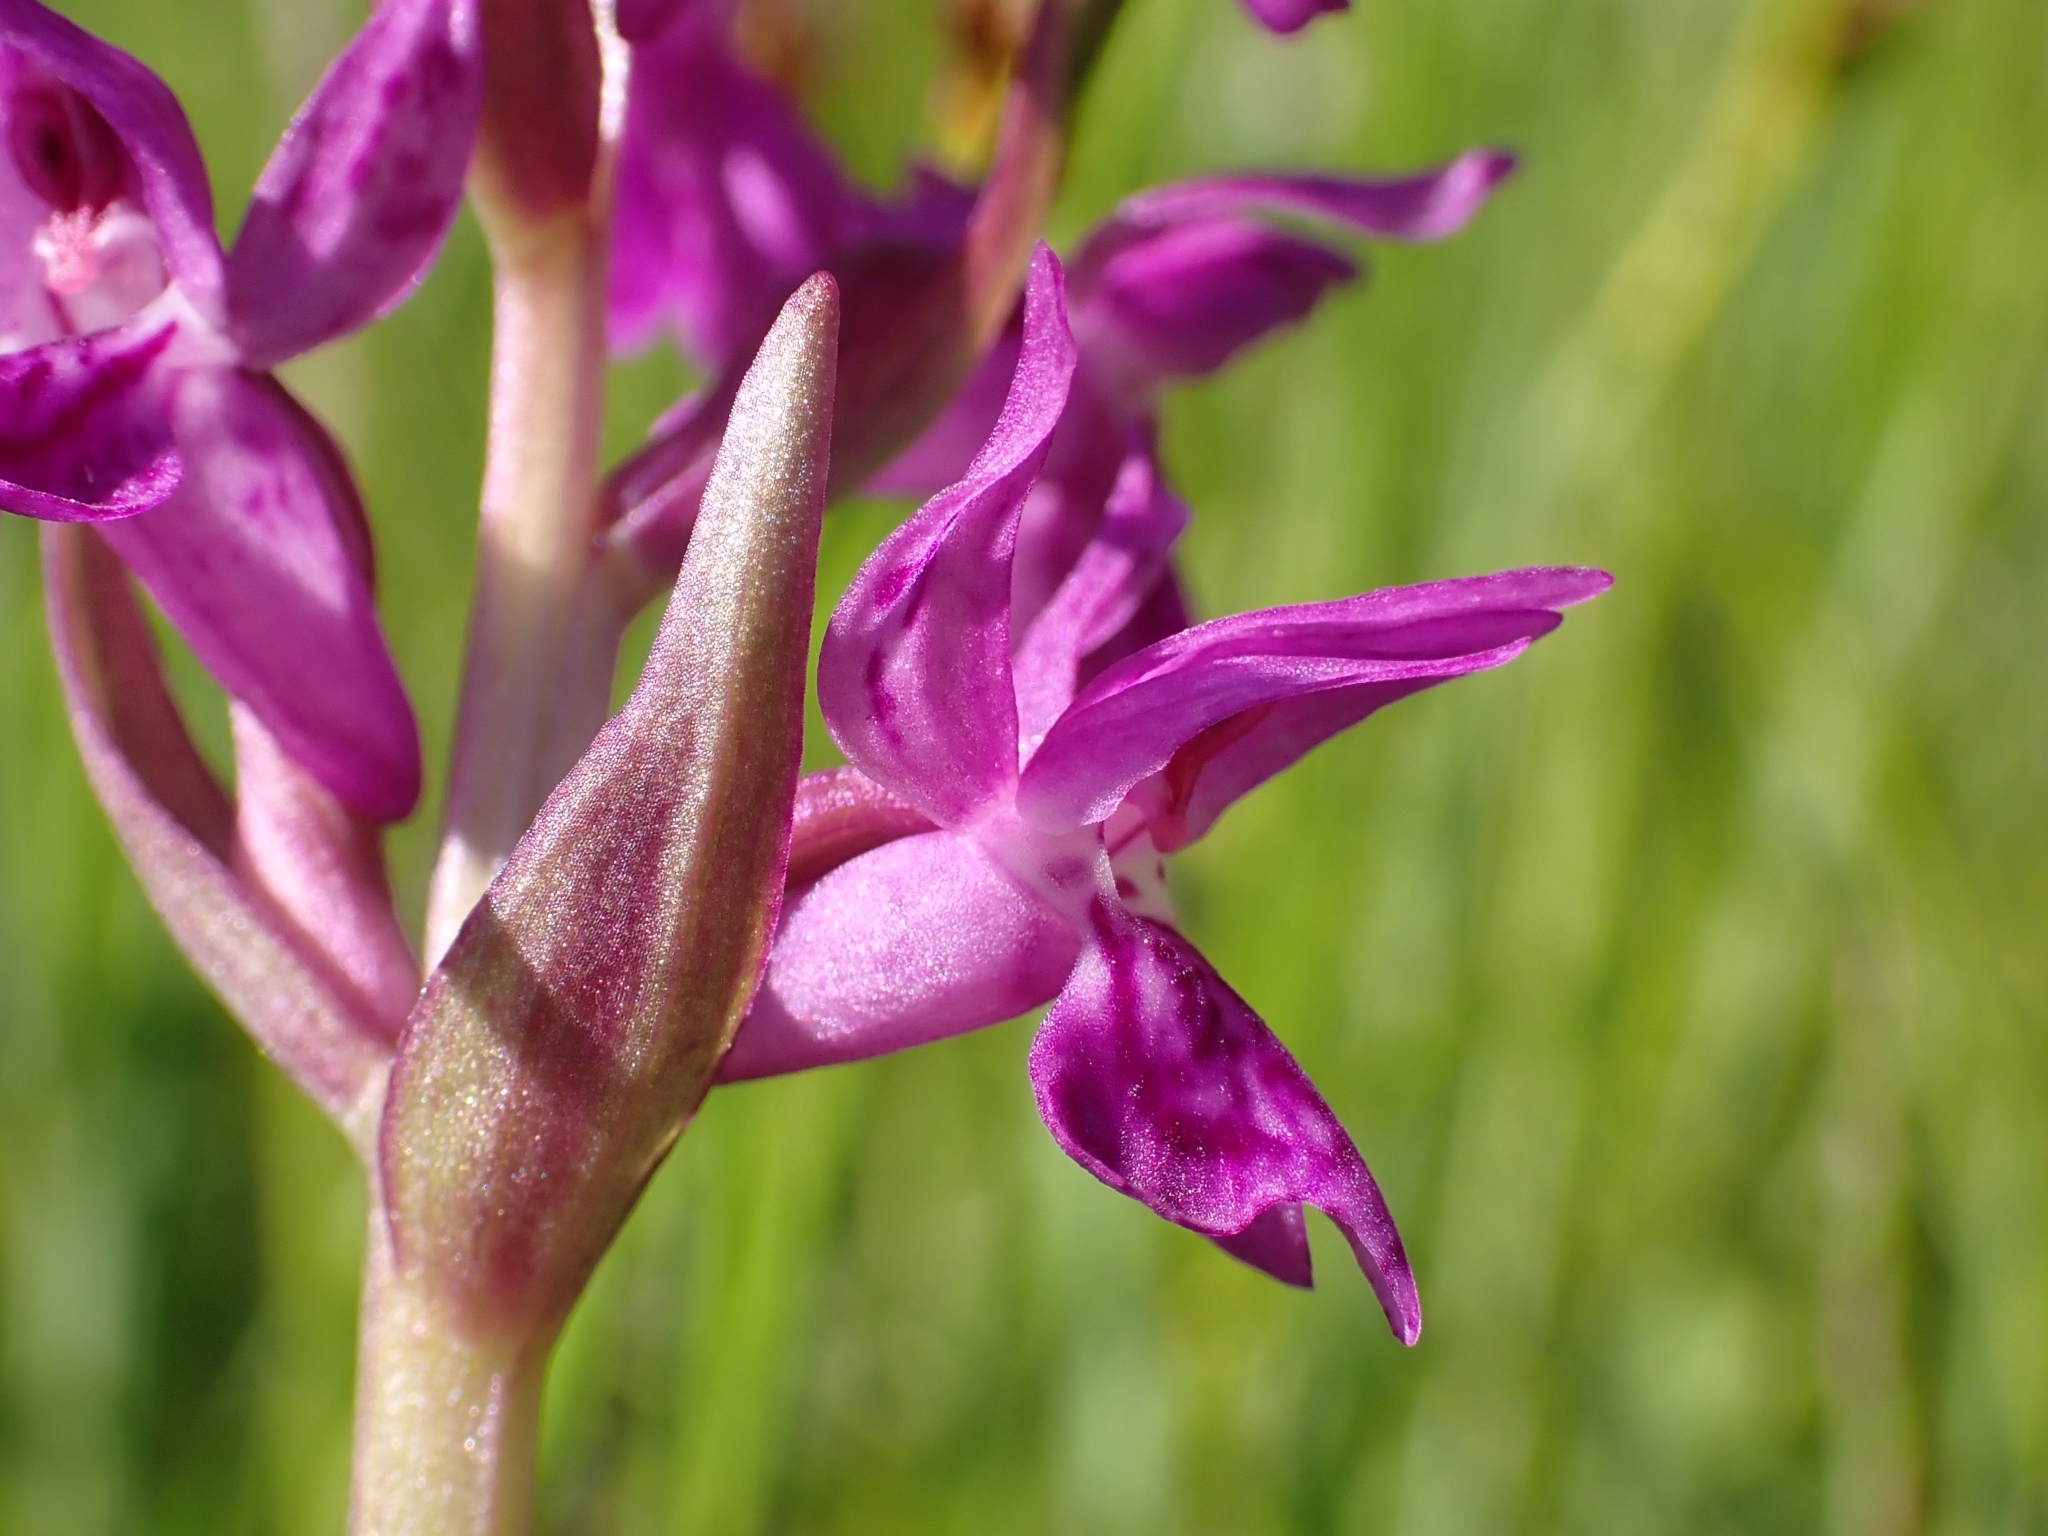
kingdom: Plantae
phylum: Tracheophyta
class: Liliopsida
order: Asparagales
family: Orchidaceae
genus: Dactylorhiza
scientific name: Dactylorhiza majalis
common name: Marsh orchid
